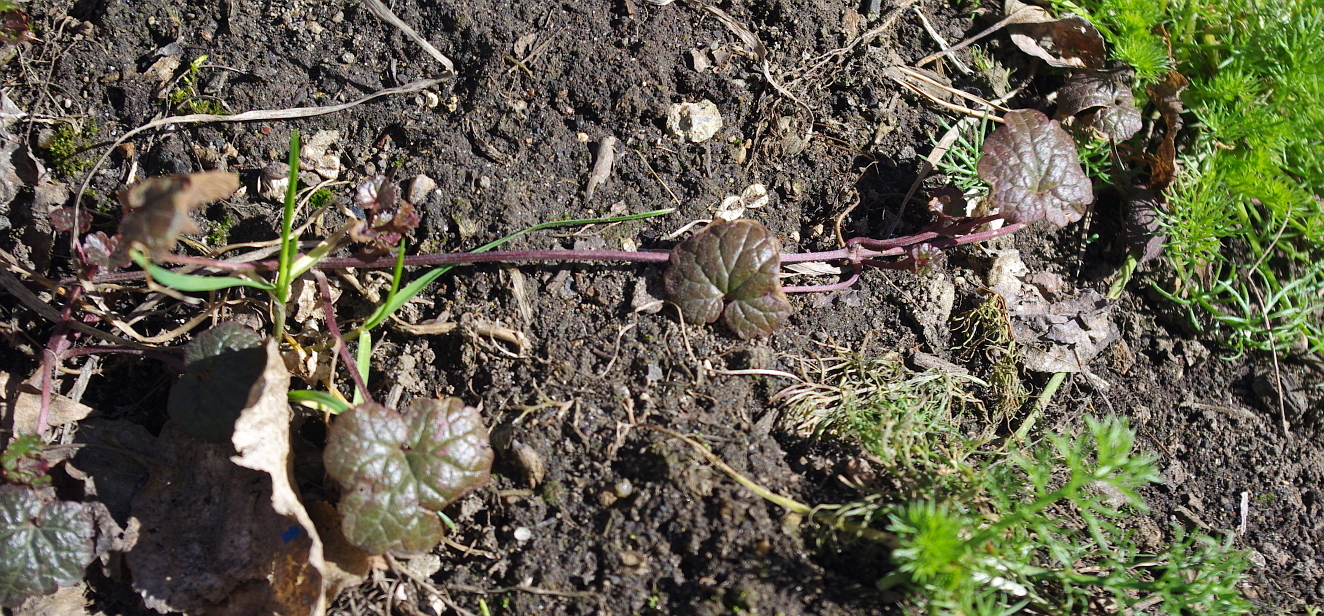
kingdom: Plantae
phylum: Tracheophyta
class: Magnoliopsida
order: Lamiales
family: Lamiaceae
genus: Glechoma
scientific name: Glechoma hederacea
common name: Ground ivy
